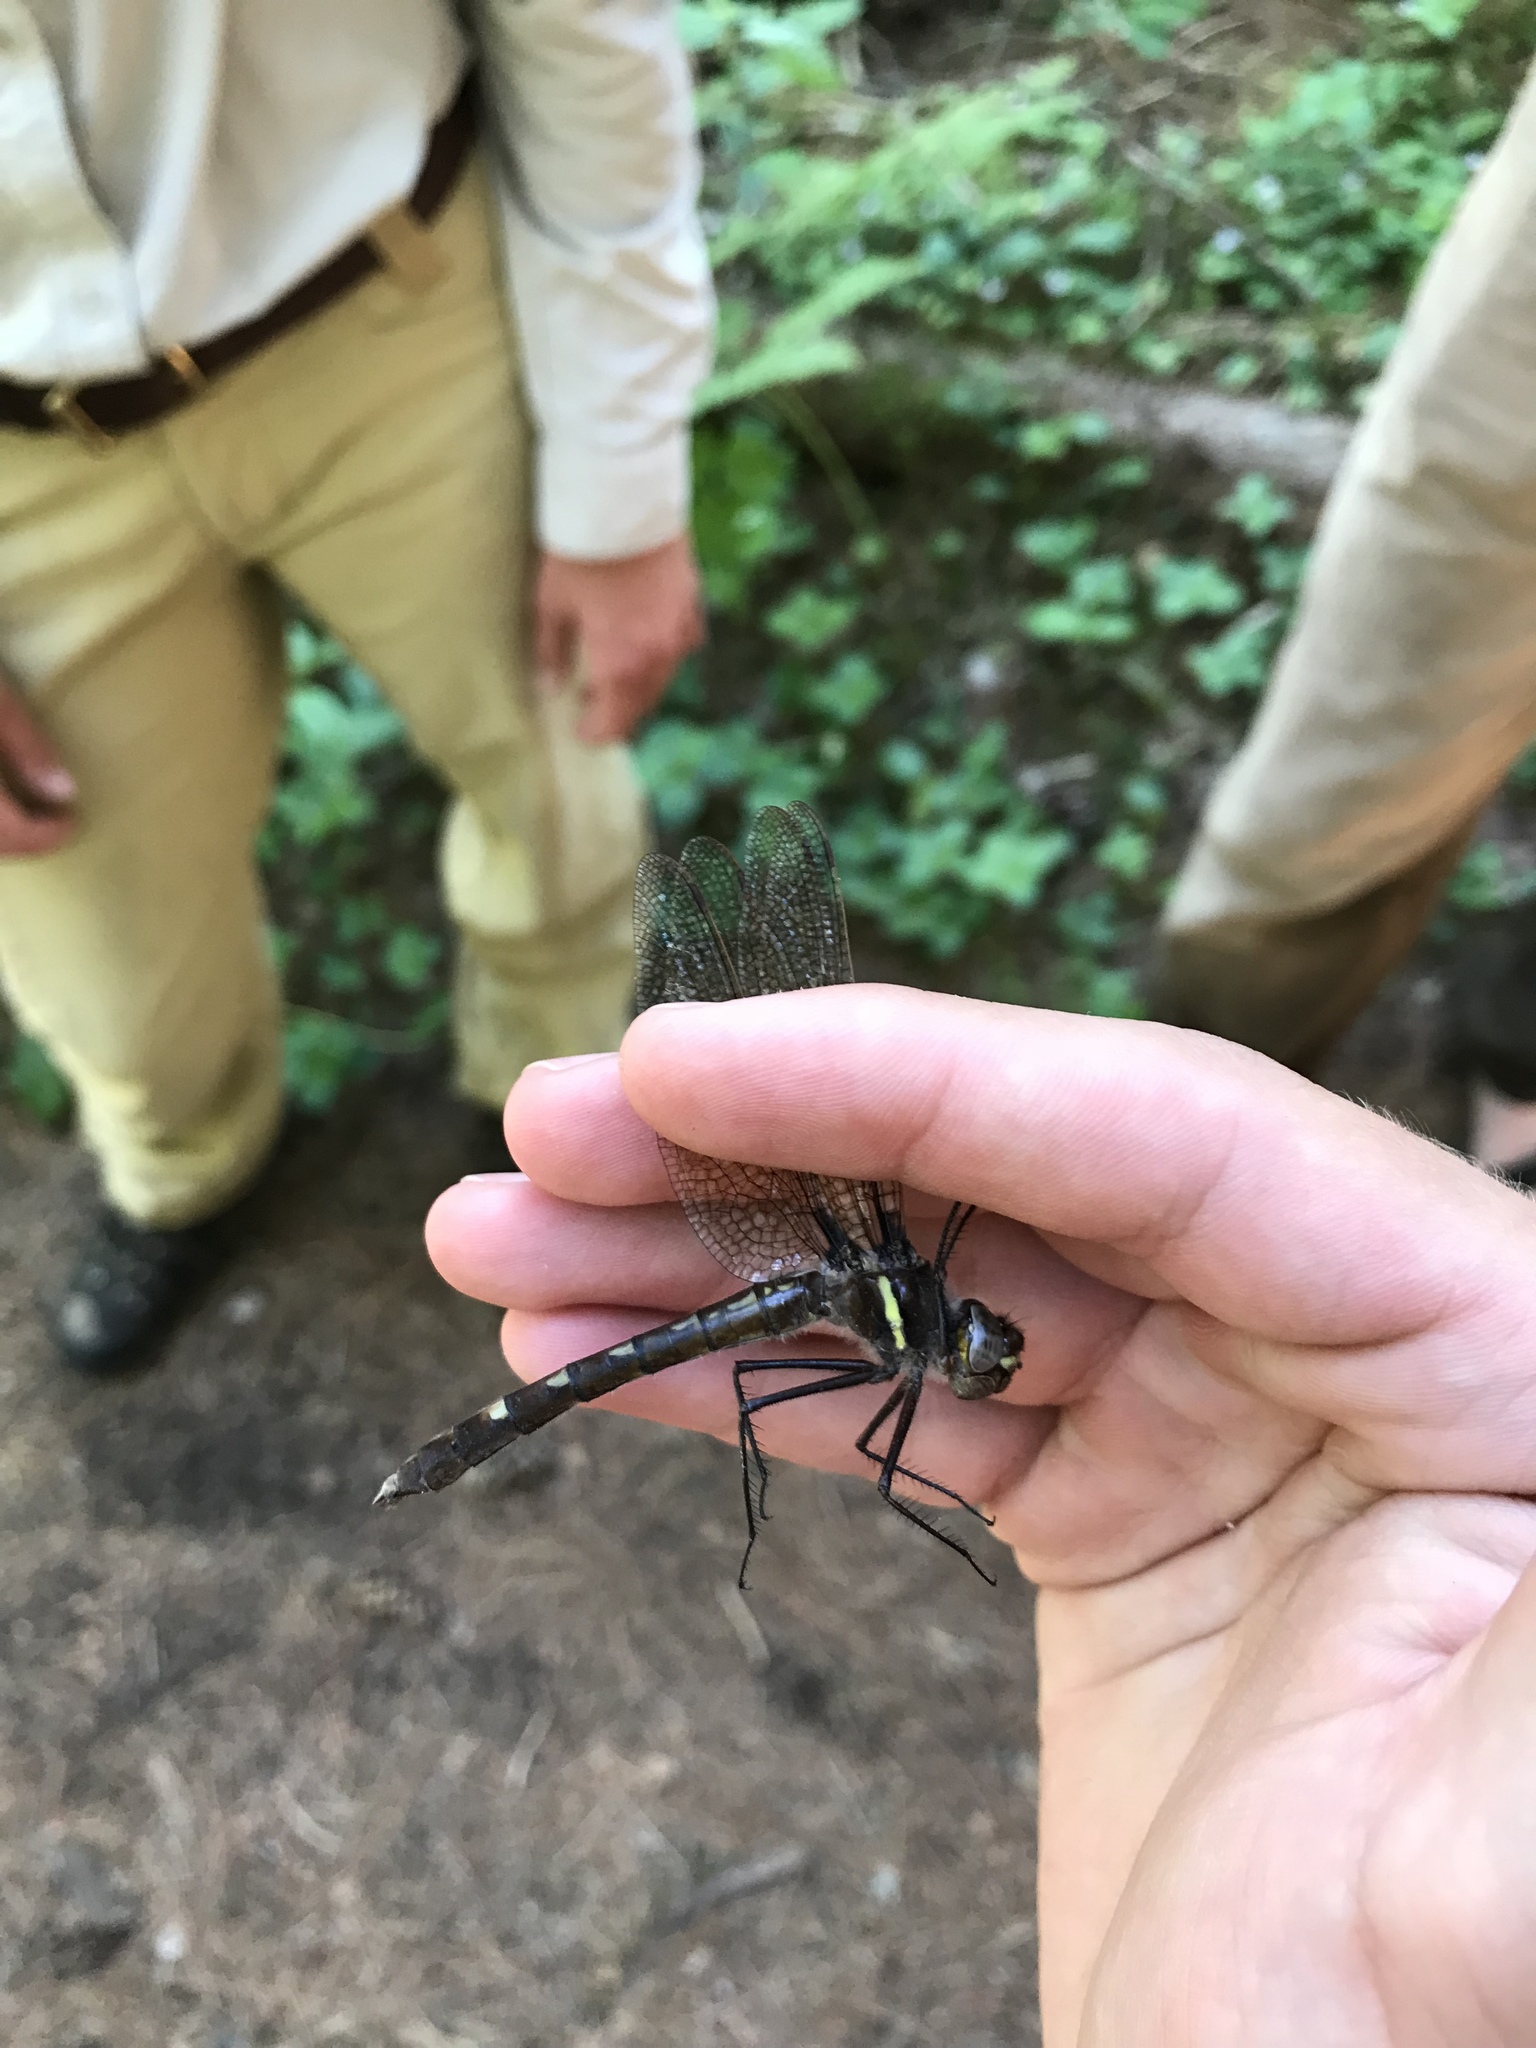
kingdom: Animalia
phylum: Arthropoda
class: Insecta
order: Odonata
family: Macromiidae
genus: Didymops
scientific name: Didymops transversa
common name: Stream cruiser
